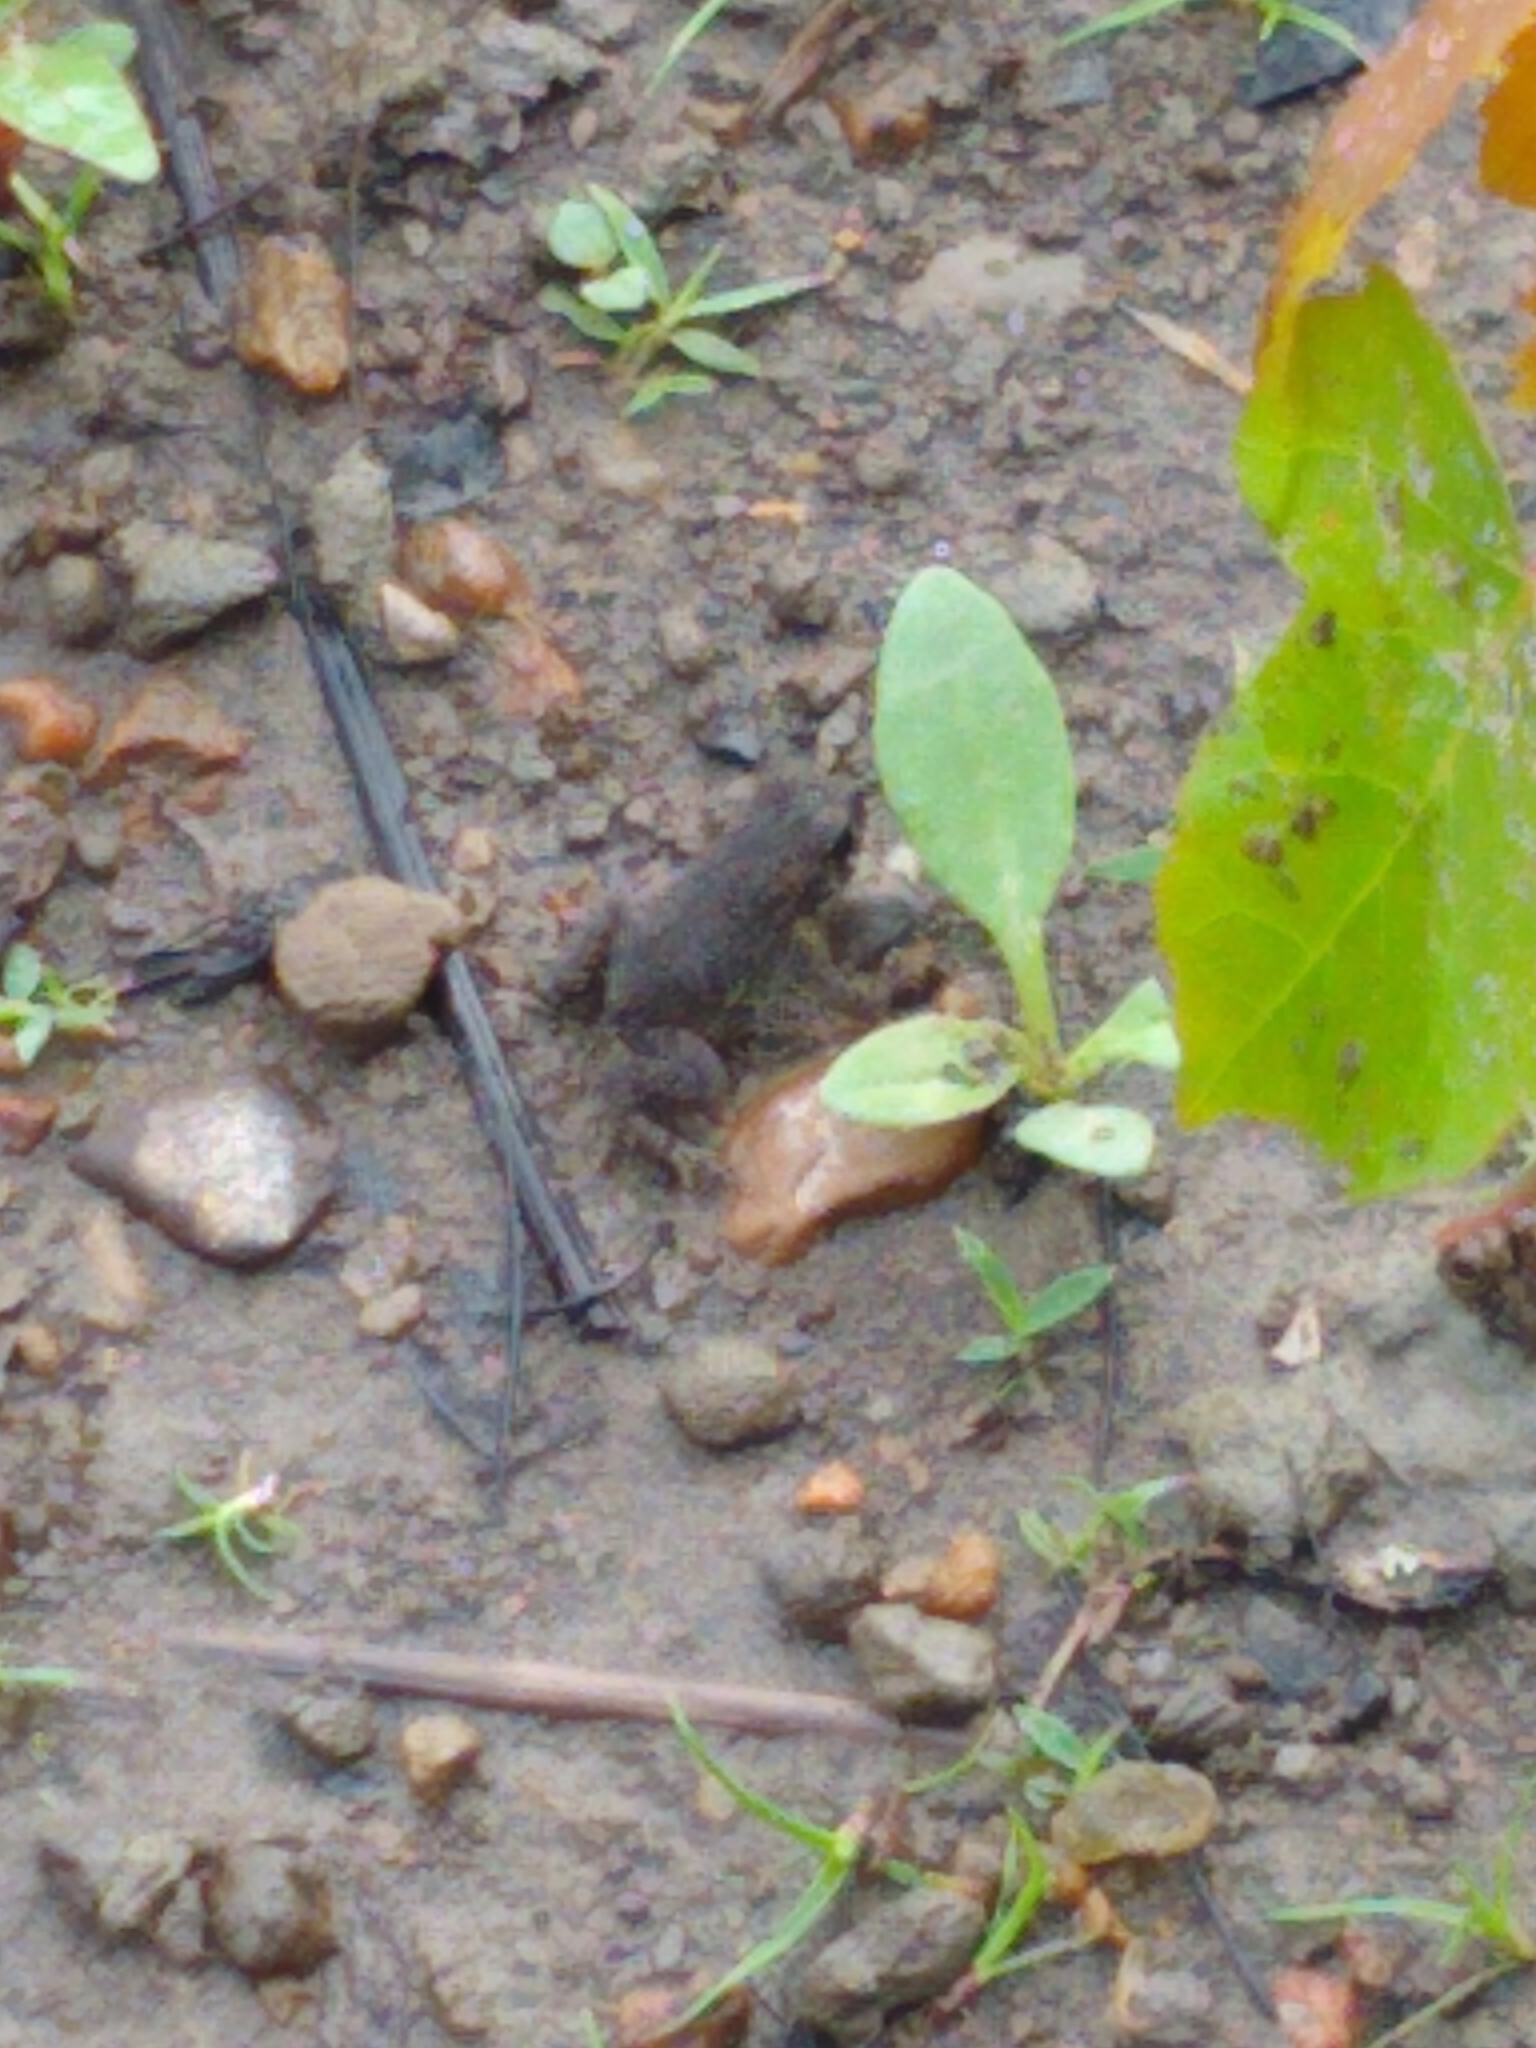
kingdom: Animalia
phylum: Chordata
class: Amphibia
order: Anura
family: Bufonidae
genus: Anaxyrus
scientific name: Anaxyrus americanus
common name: American toad
